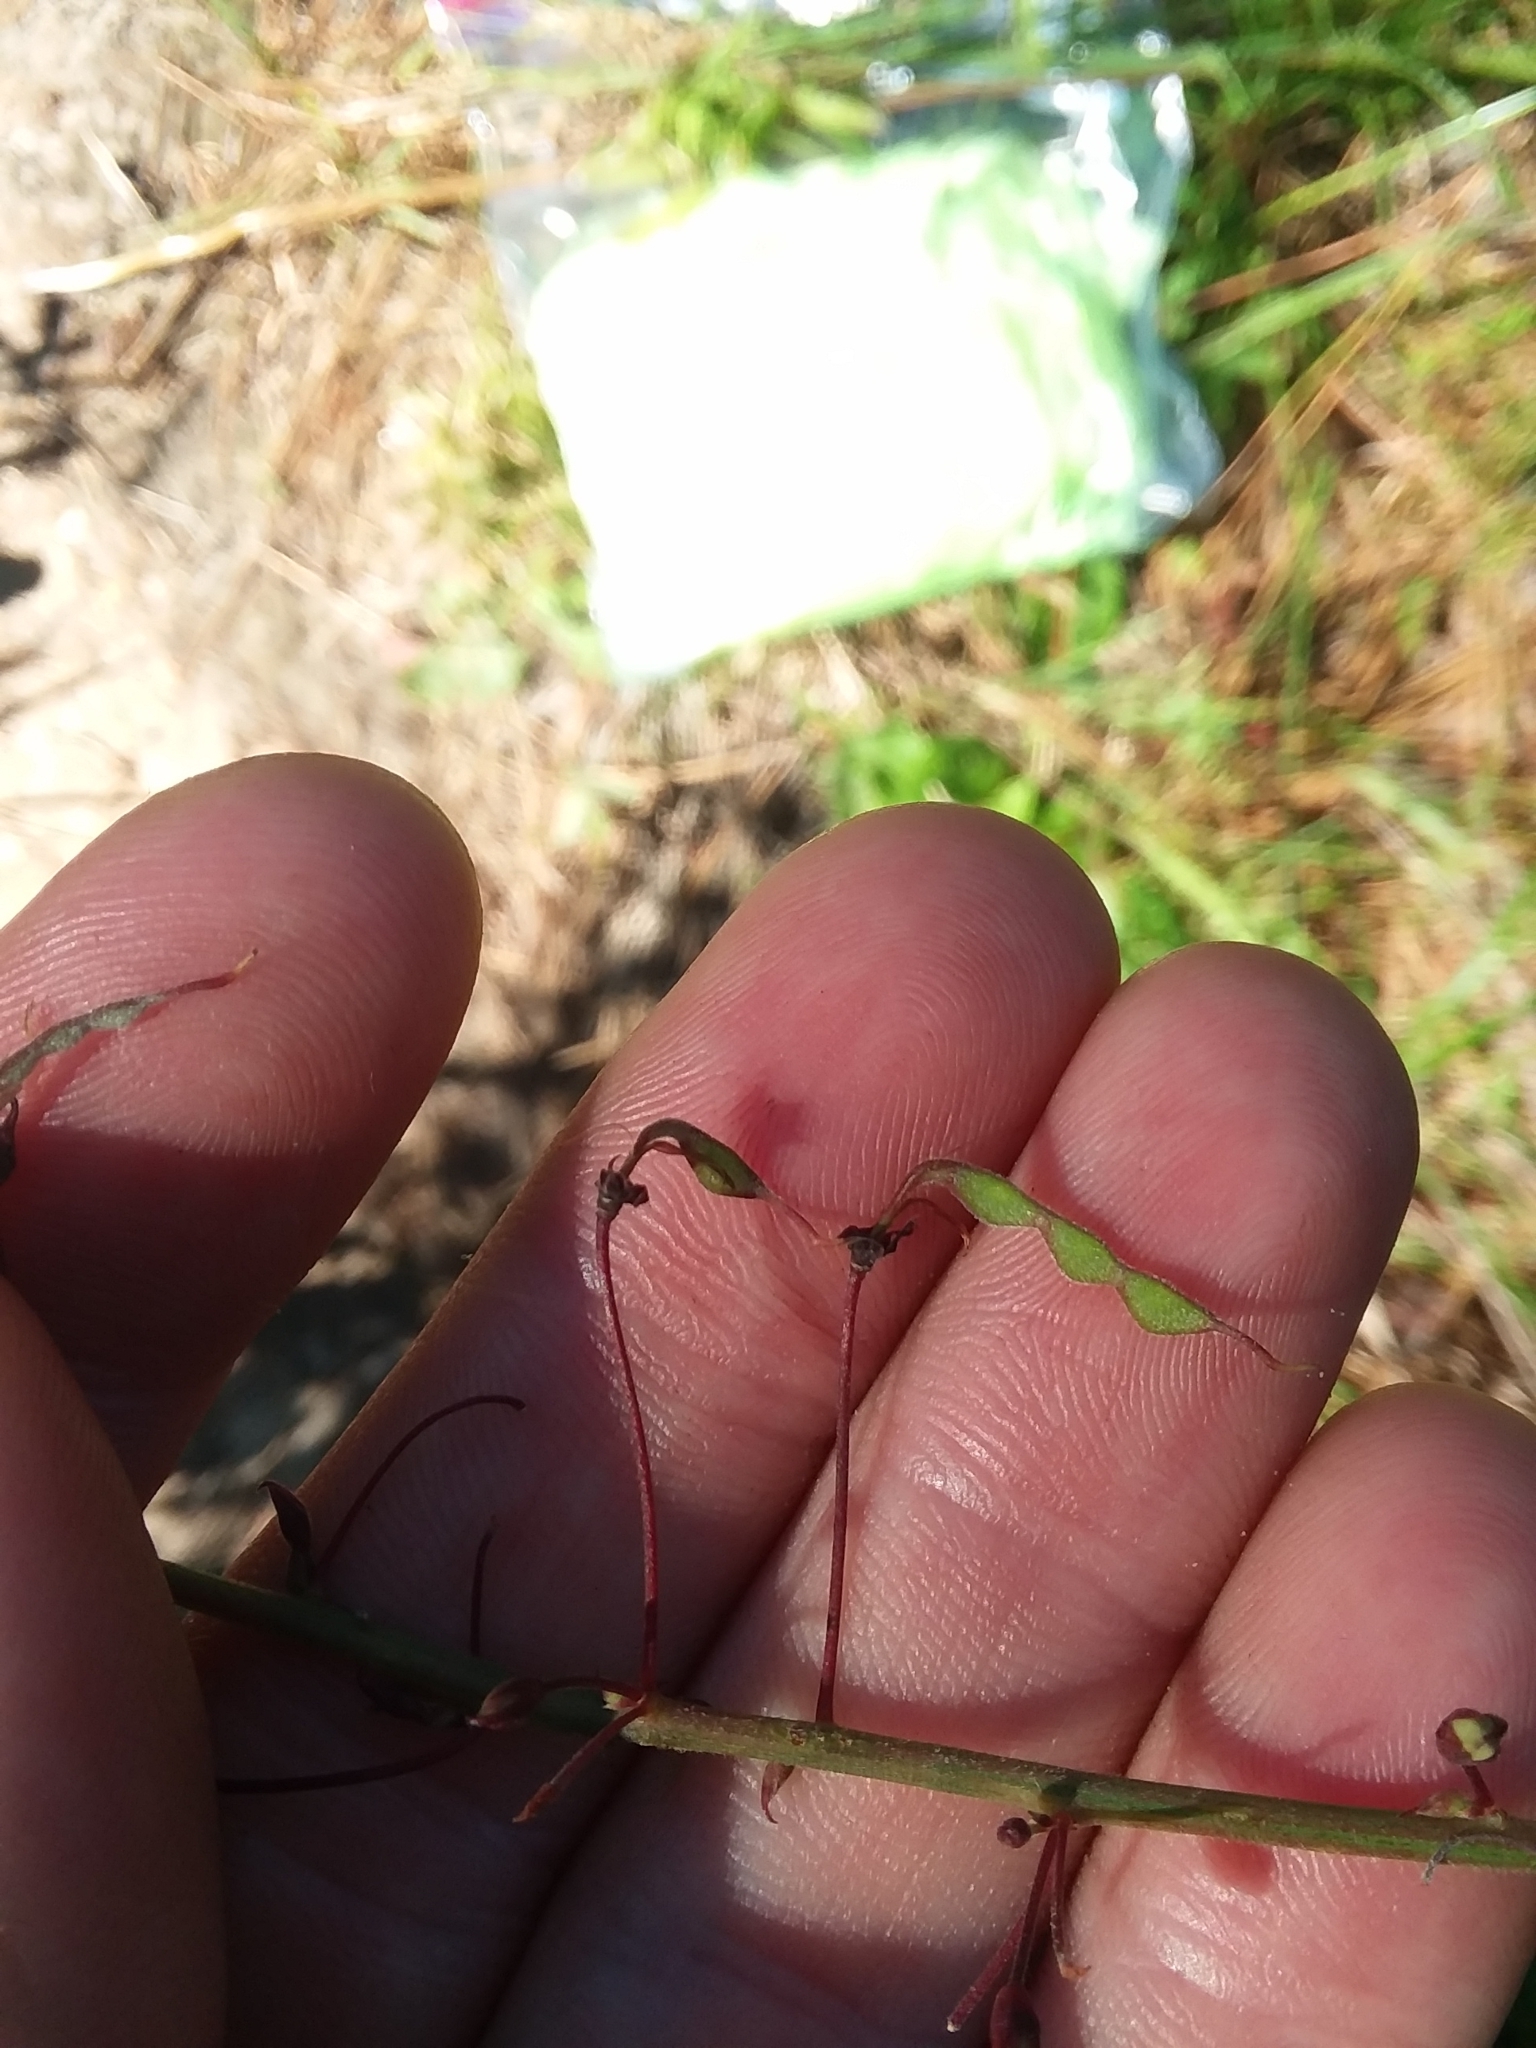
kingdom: Plantae
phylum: Tracheophyta
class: Magnoliopsida
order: Fabales
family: Fabaceae
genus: Desmodium
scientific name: Desmodium laevigatum
